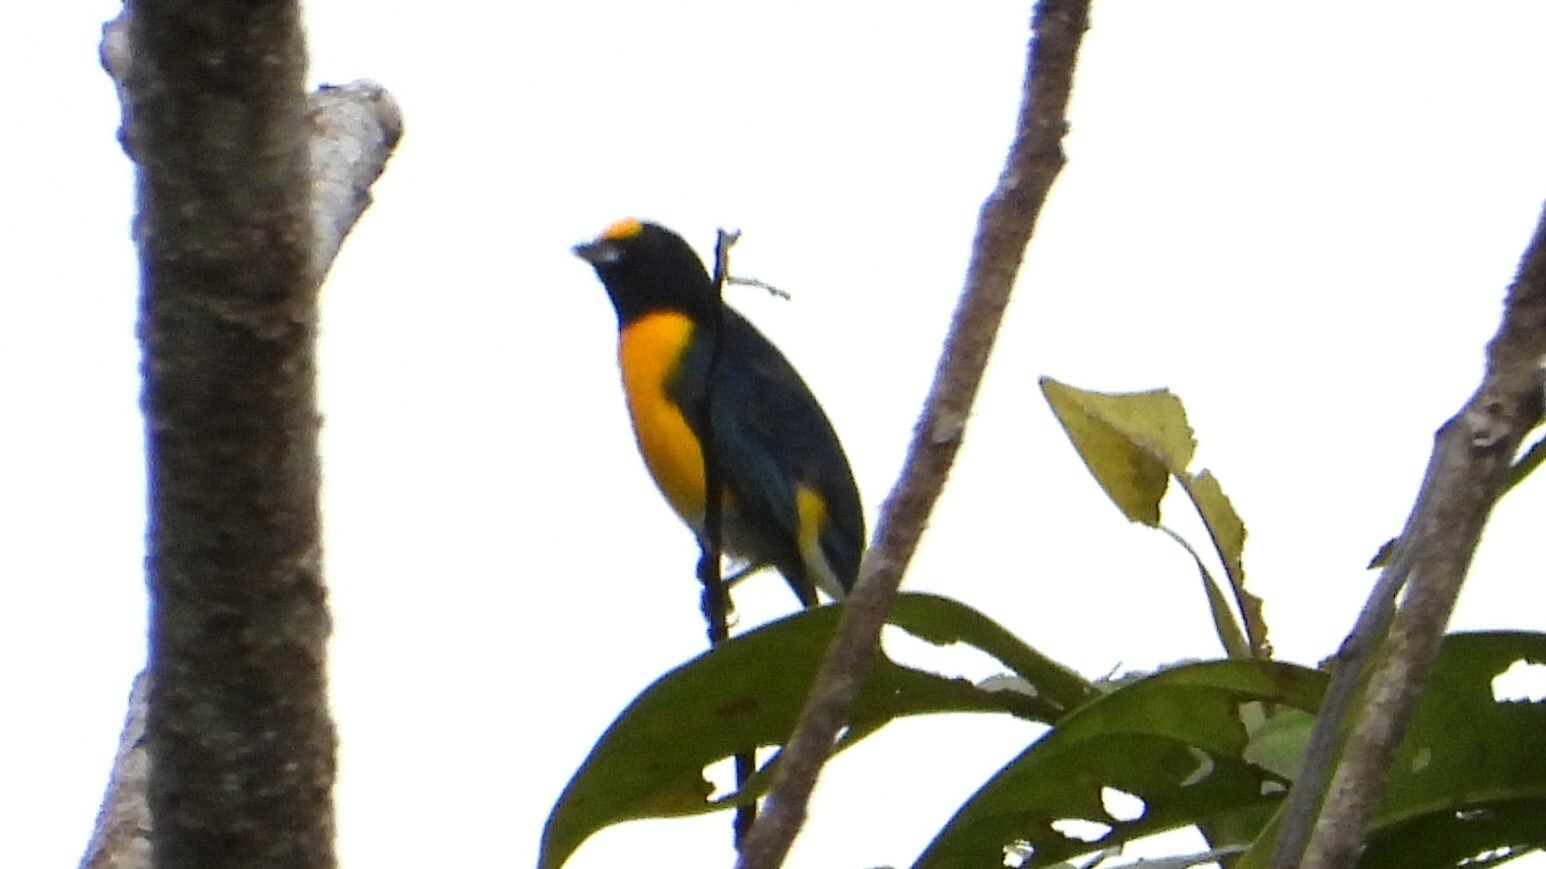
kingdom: Animalia
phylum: Chordata
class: Aves
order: Passeriformes
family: Fringillidae
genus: Euphonia
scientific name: Euphonia minuta
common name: White-vented euphonia
